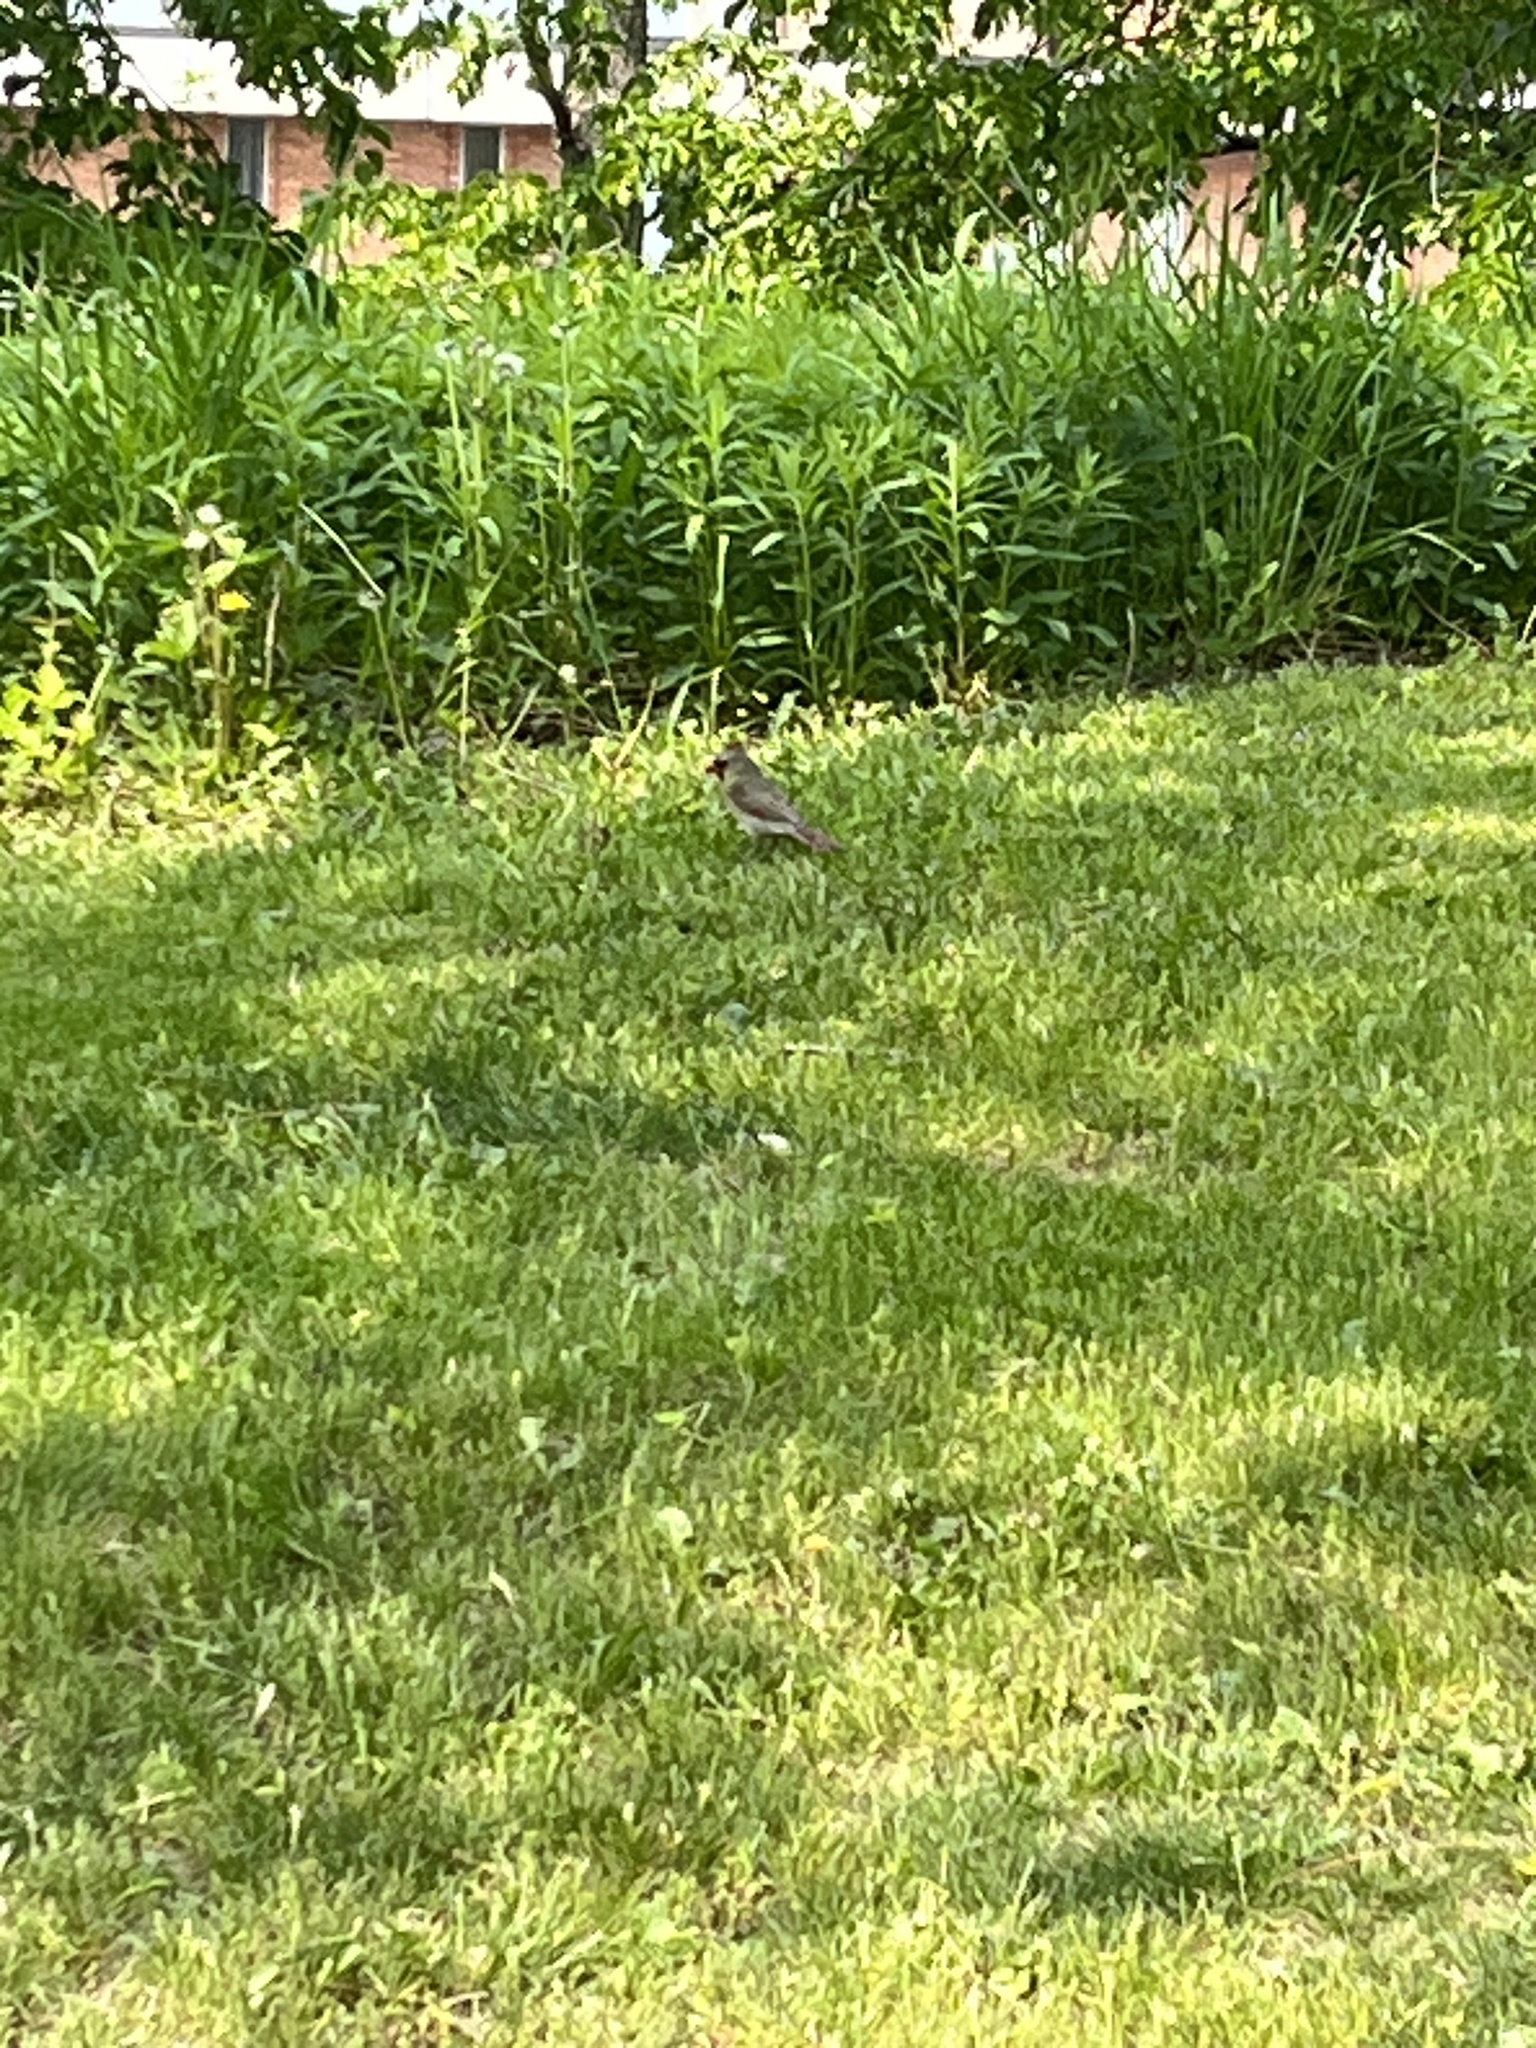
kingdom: Animalia
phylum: Chordata
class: Aves
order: Passeriformes
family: Cardinalidae
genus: Cardinalis
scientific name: Cardinalis cardinalis
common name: Northern cardinal
